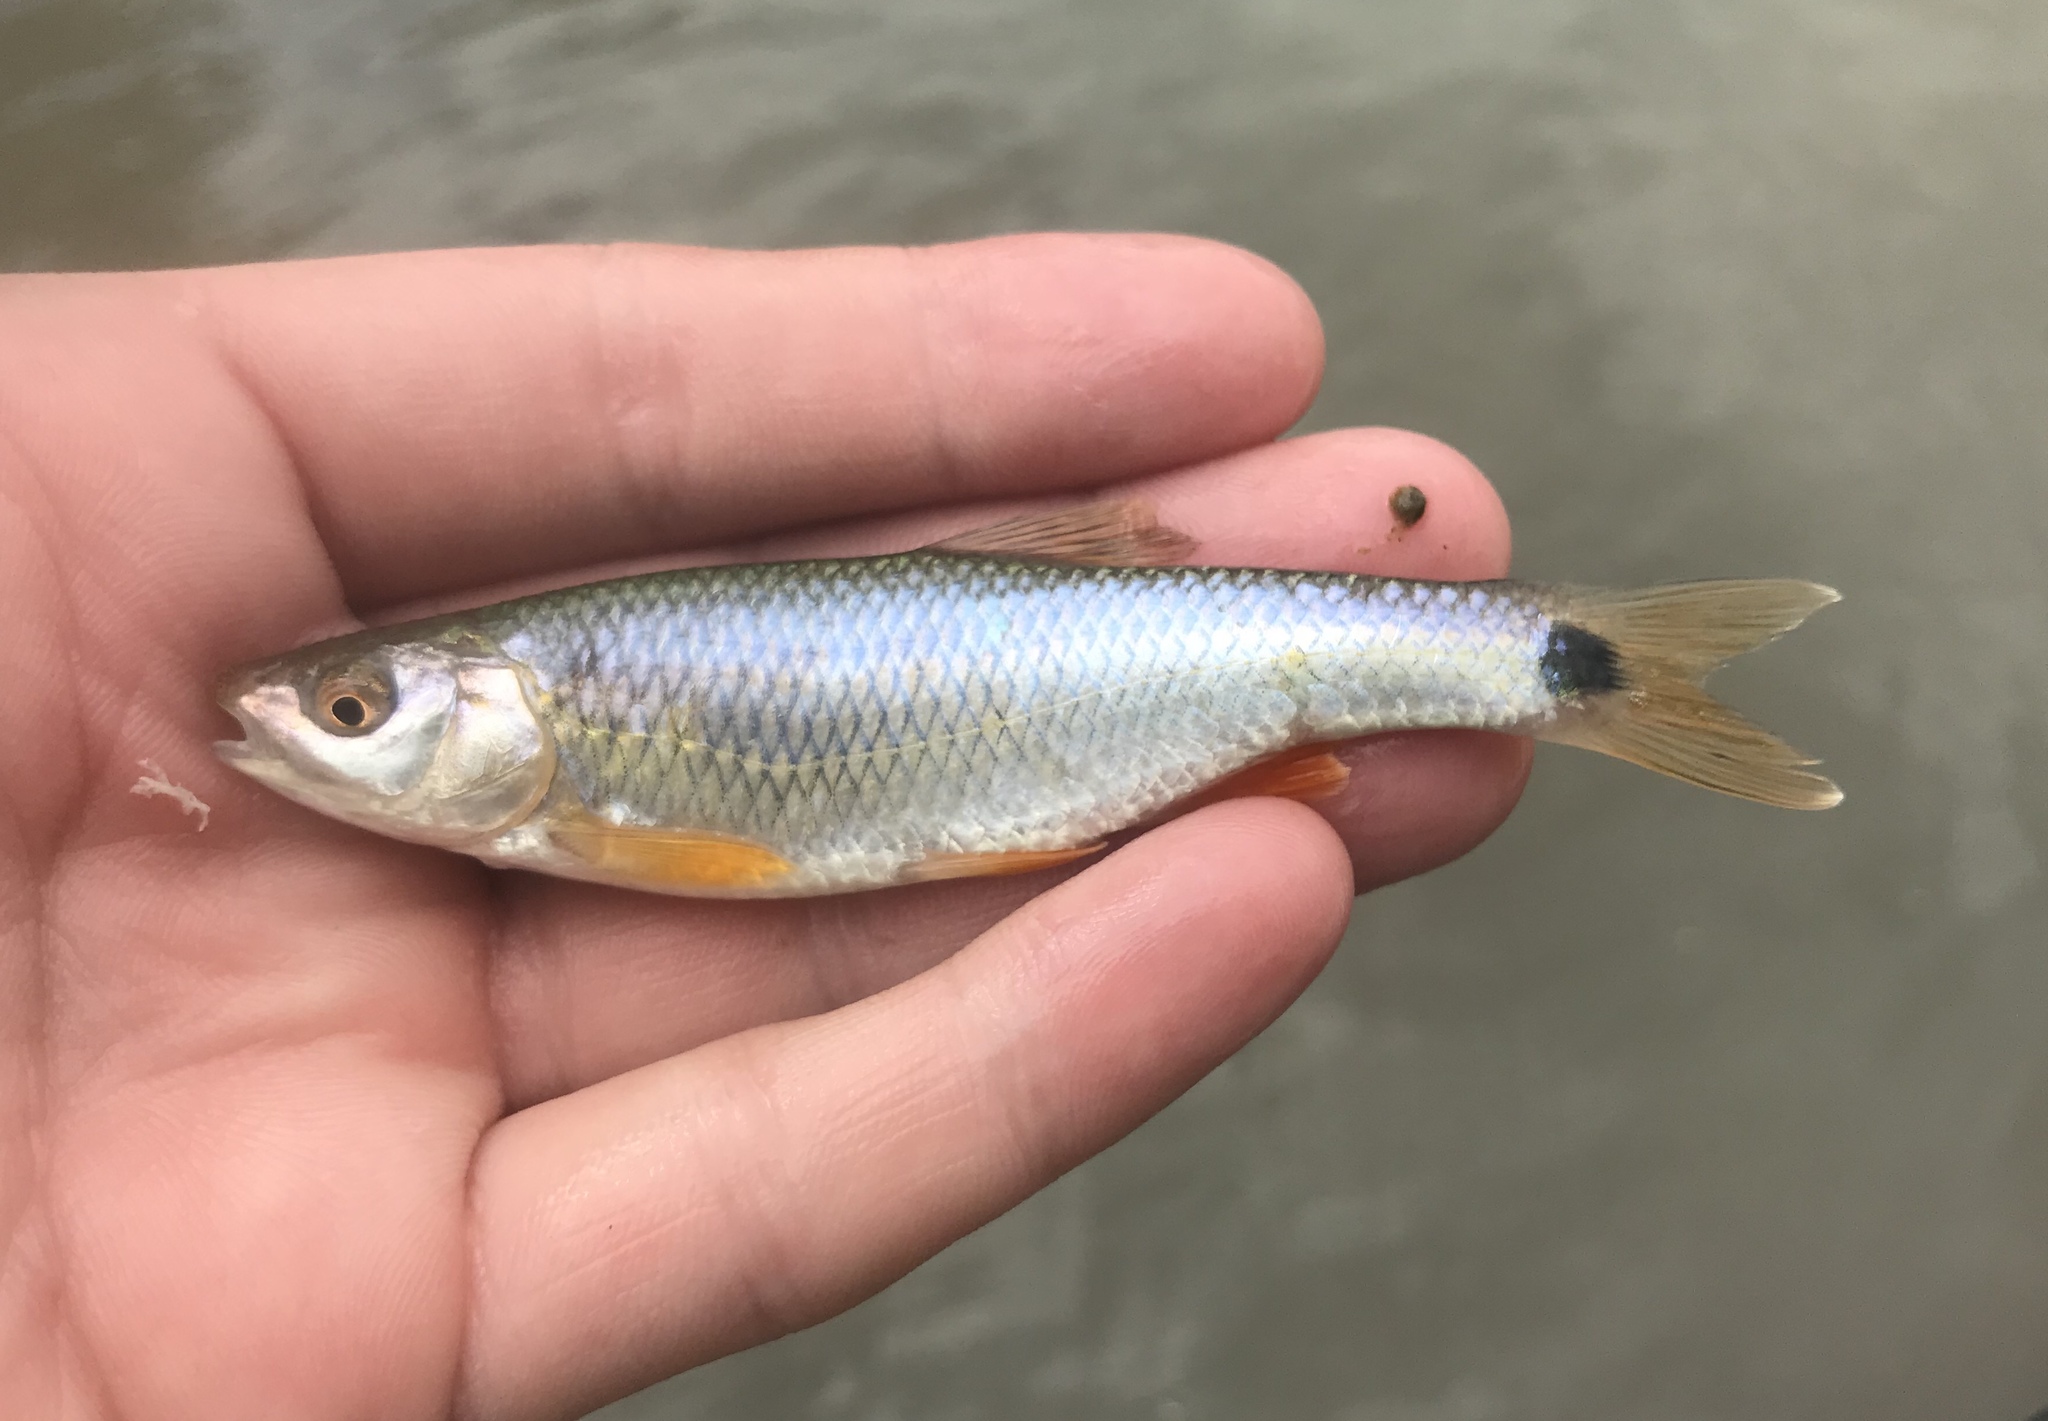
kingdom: Animalia
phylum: Chordata
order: Cypriniformes
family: Cyprinidae
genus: Cyprinella
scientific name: Cyprinella venusta
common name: Blacktail shiner
